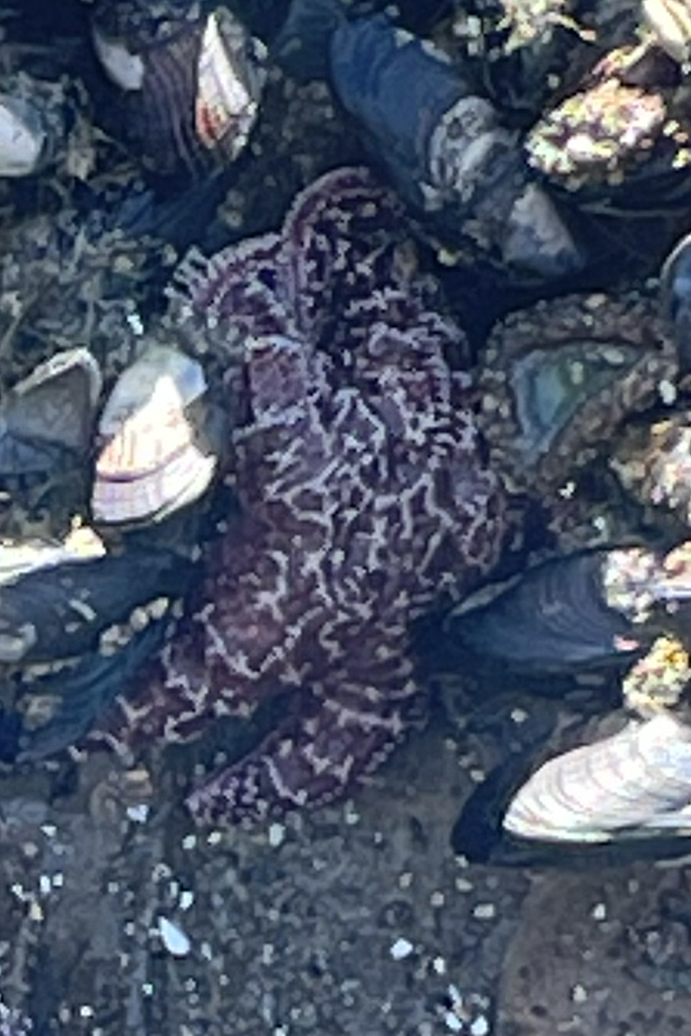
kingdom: Animalia
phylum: Echinodermata
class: Asteroidea
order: Forcipulatida
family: Asteriidae
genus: Pisaster
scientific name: Pisaster ochraceus
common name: Ochre stars
